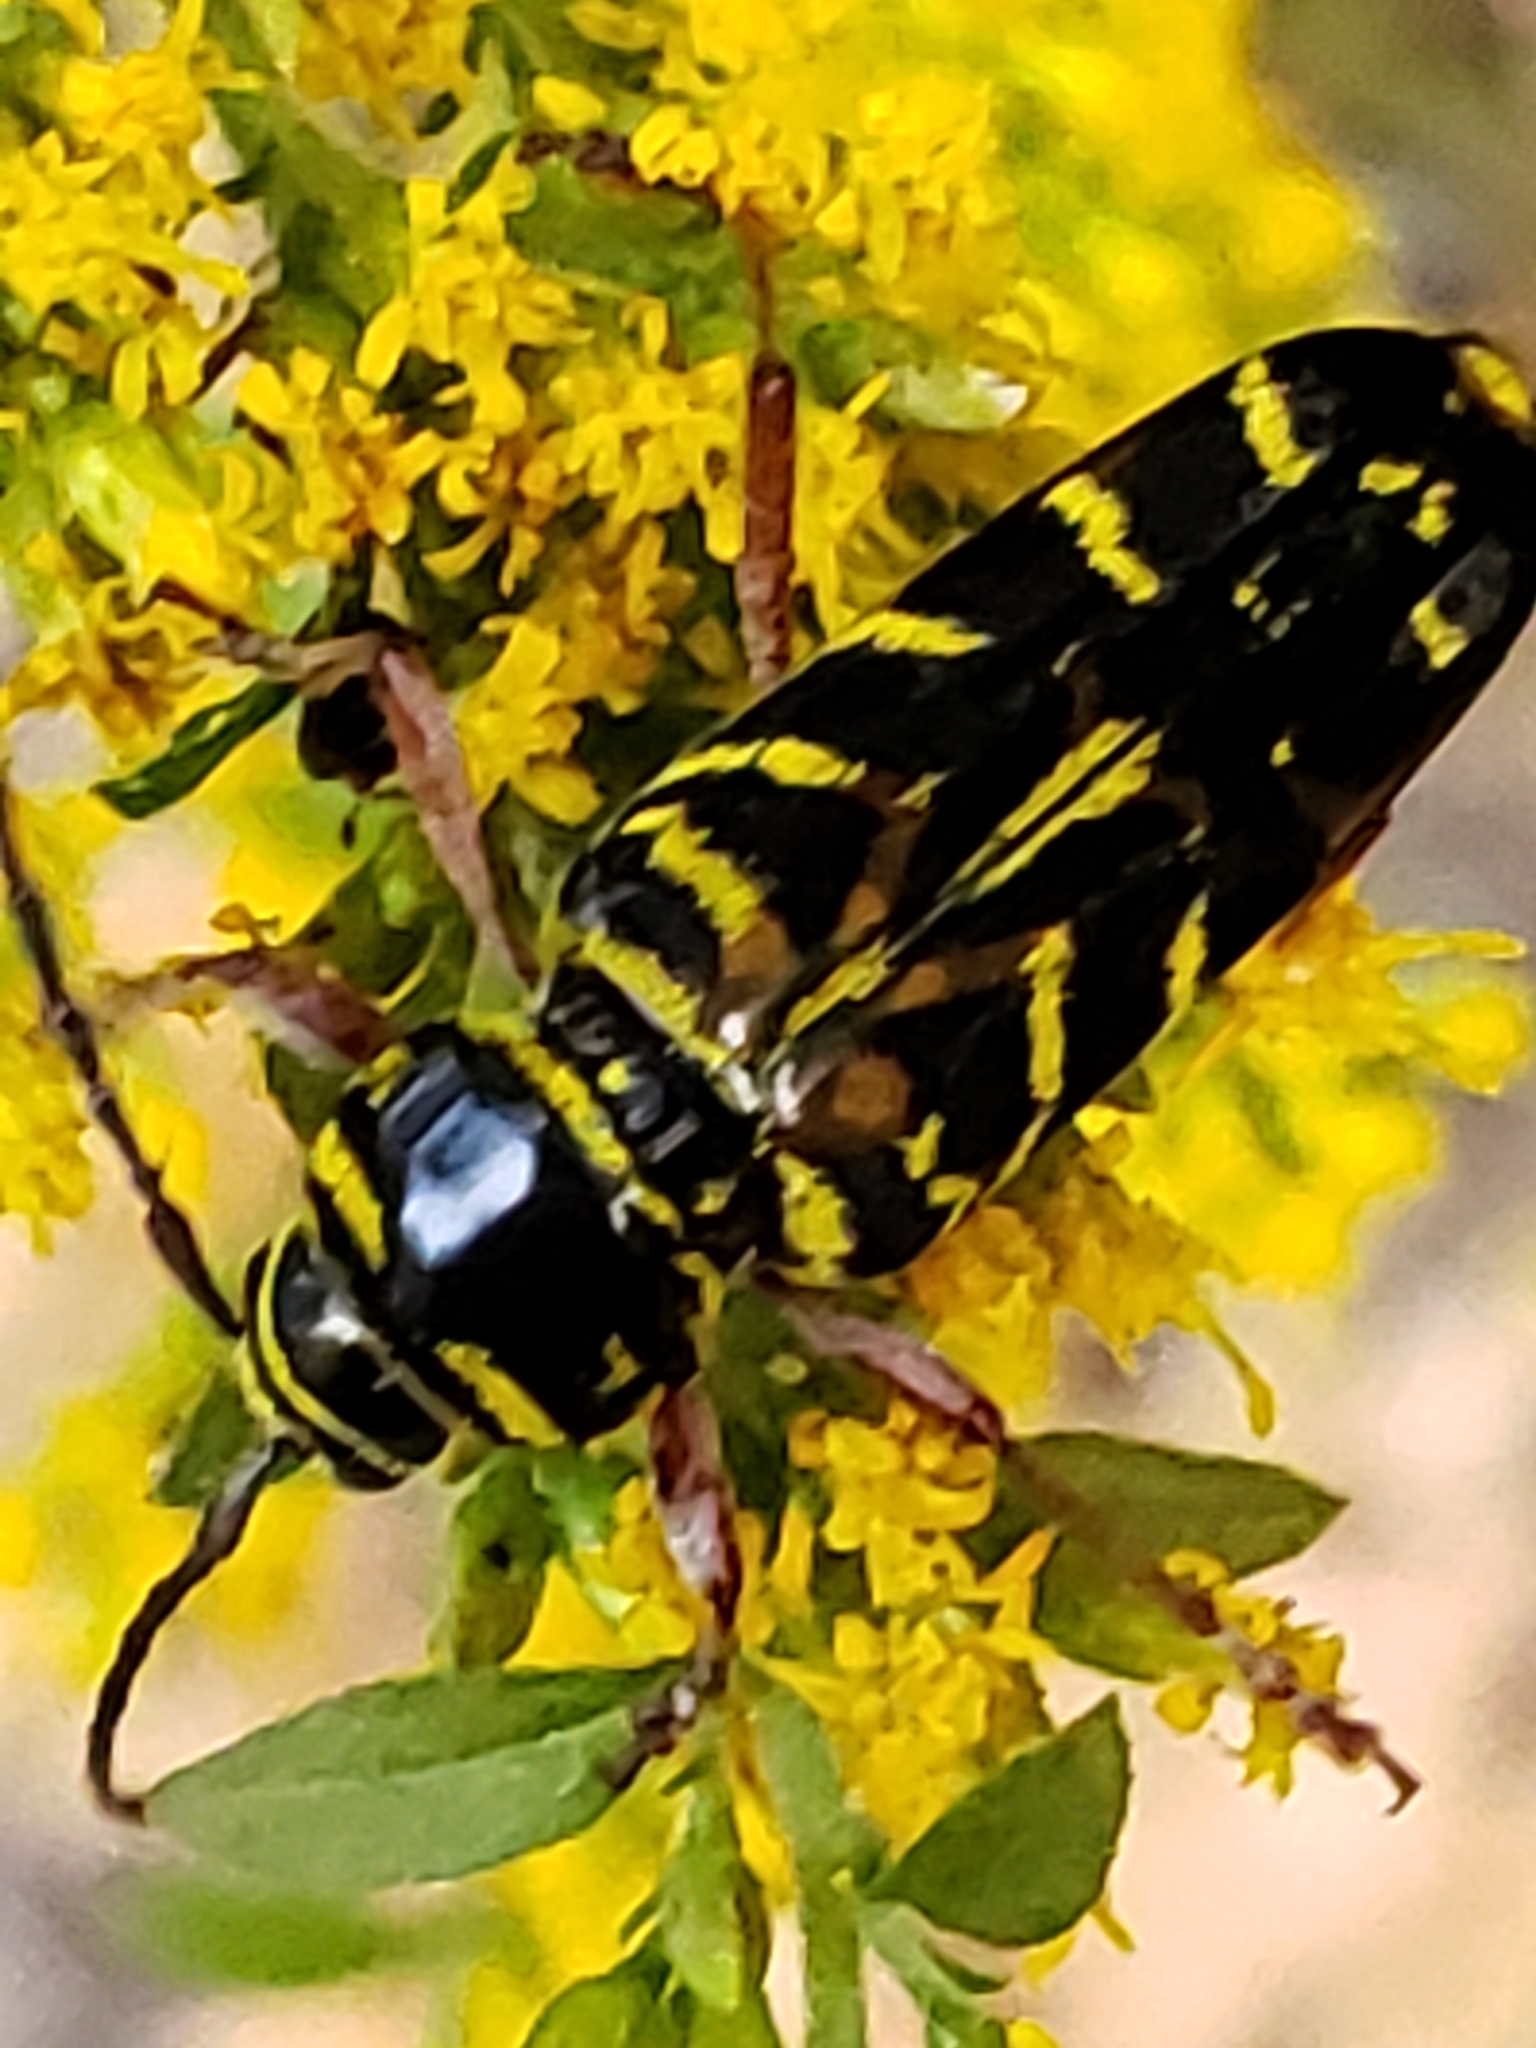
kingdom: Animalia
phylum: Arthropoda
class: Insecta
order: Coleoptera
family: Cerambycidae
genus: Megacyllene
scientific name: Megacyllene robiniae
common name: Locust borer
